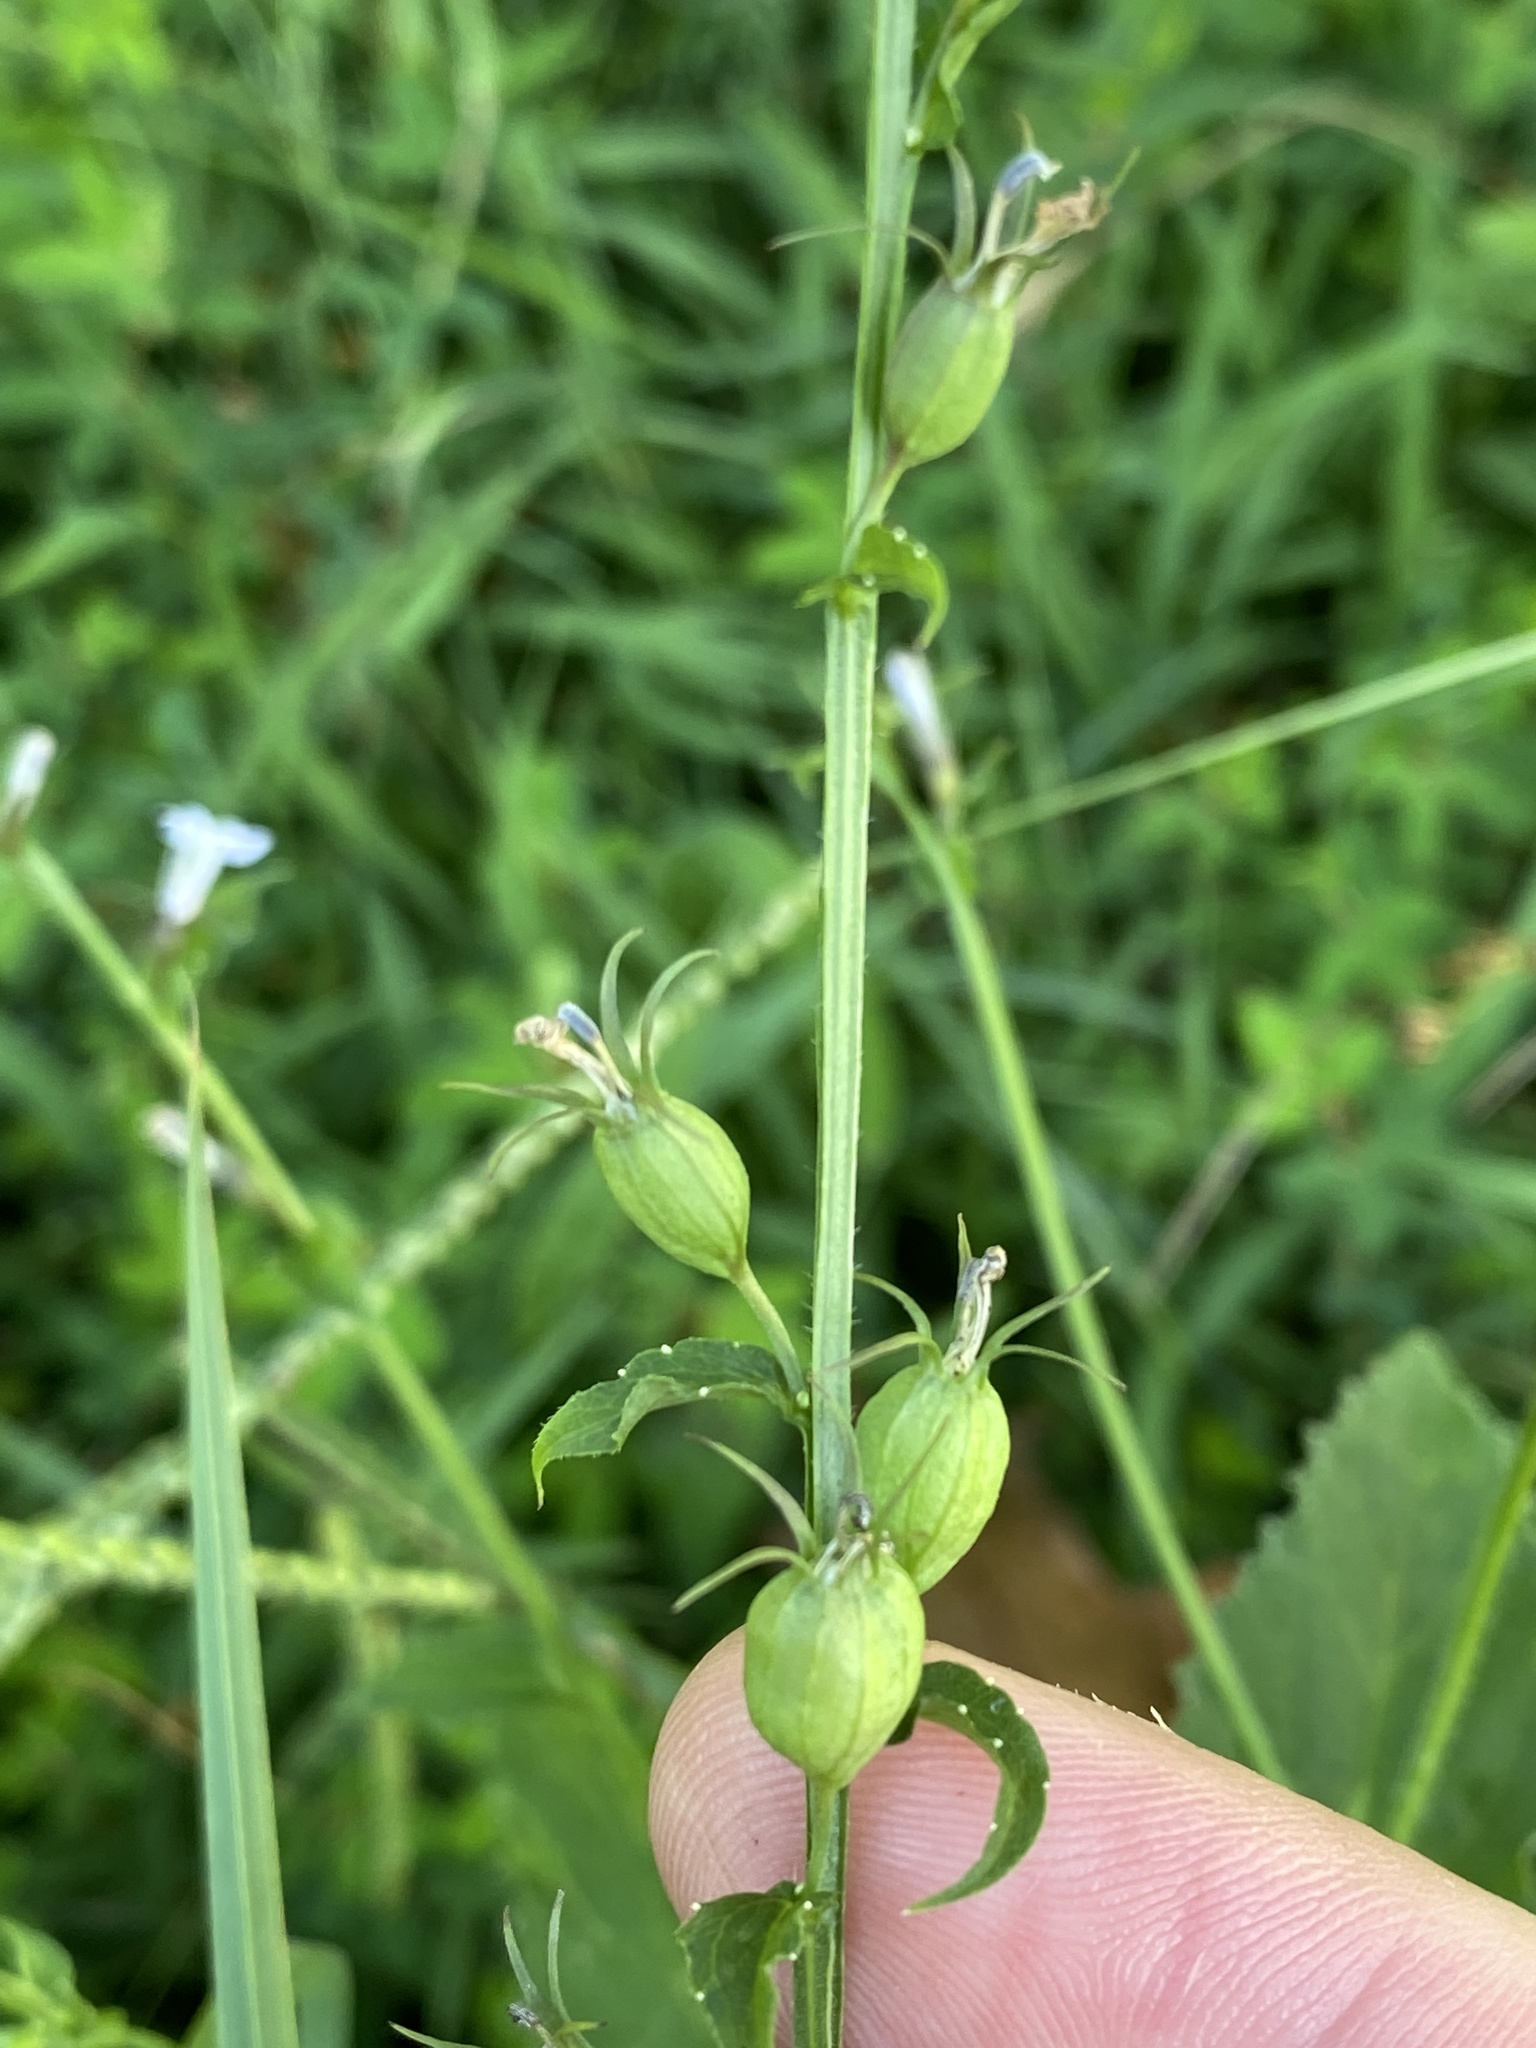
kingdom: Plantae
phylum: Tracheophyta
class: Magnoliopsida
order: Asterales
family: Campanulaceae
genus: Lobelia
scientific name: Lobelia inflata
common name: Indian tobacco
